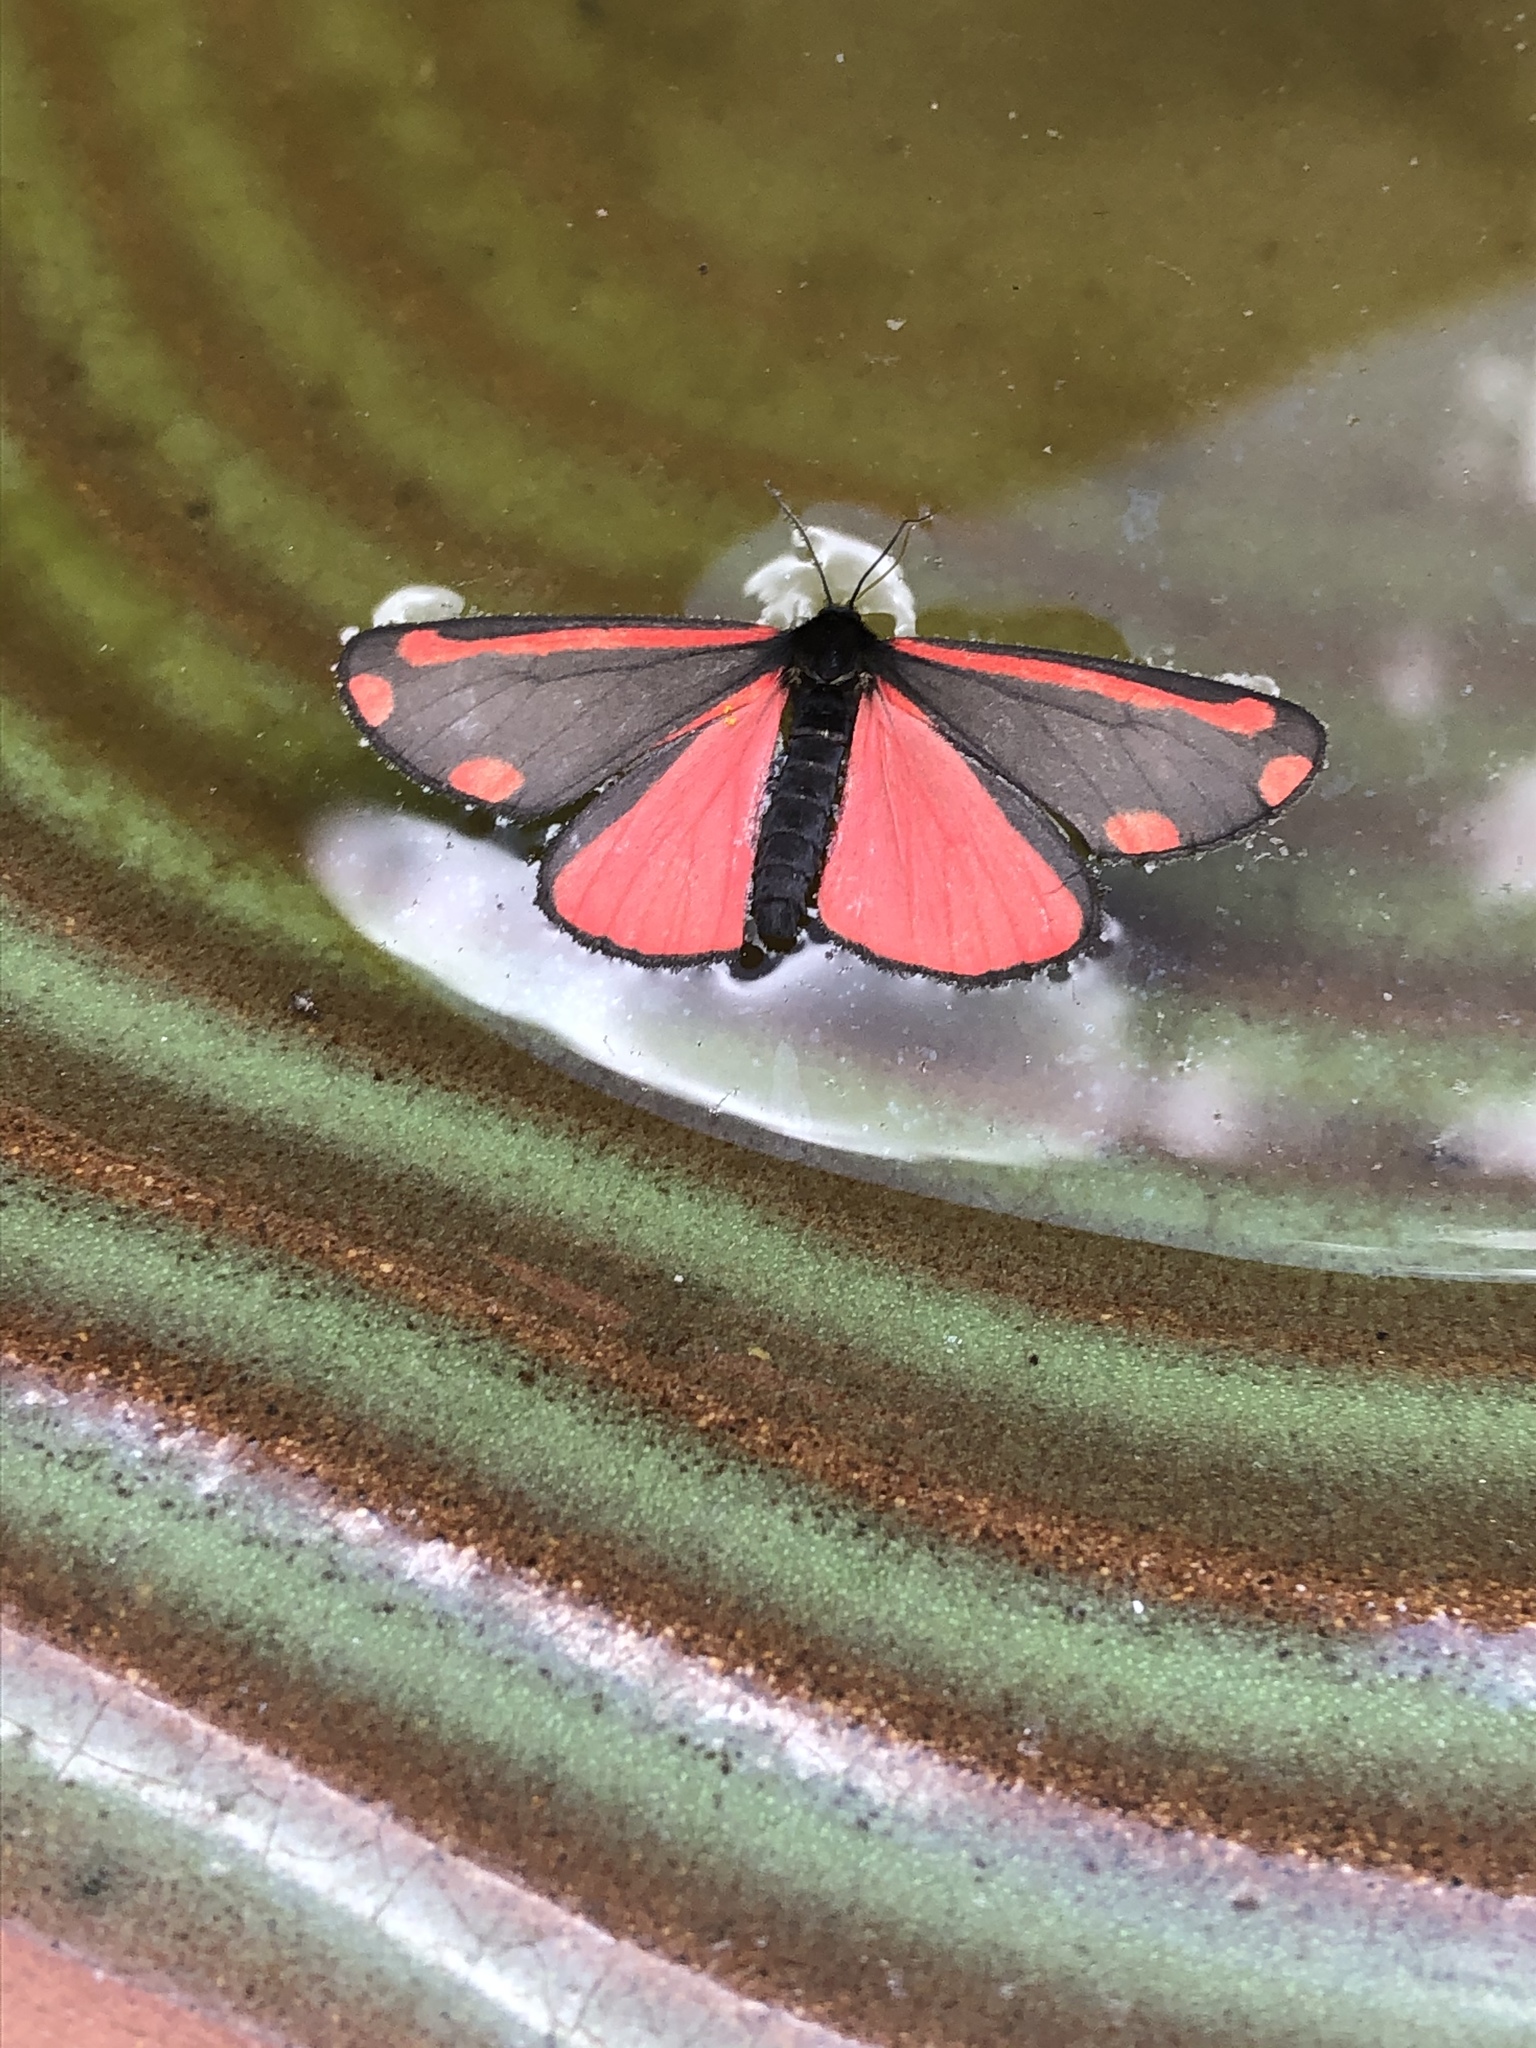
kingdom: Animalia
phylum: Arthropoda
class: Insecta
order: Lepidoptera
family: Erebidae
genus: Tyria
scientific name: Tyria jacobaeae
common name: Cinnabar
